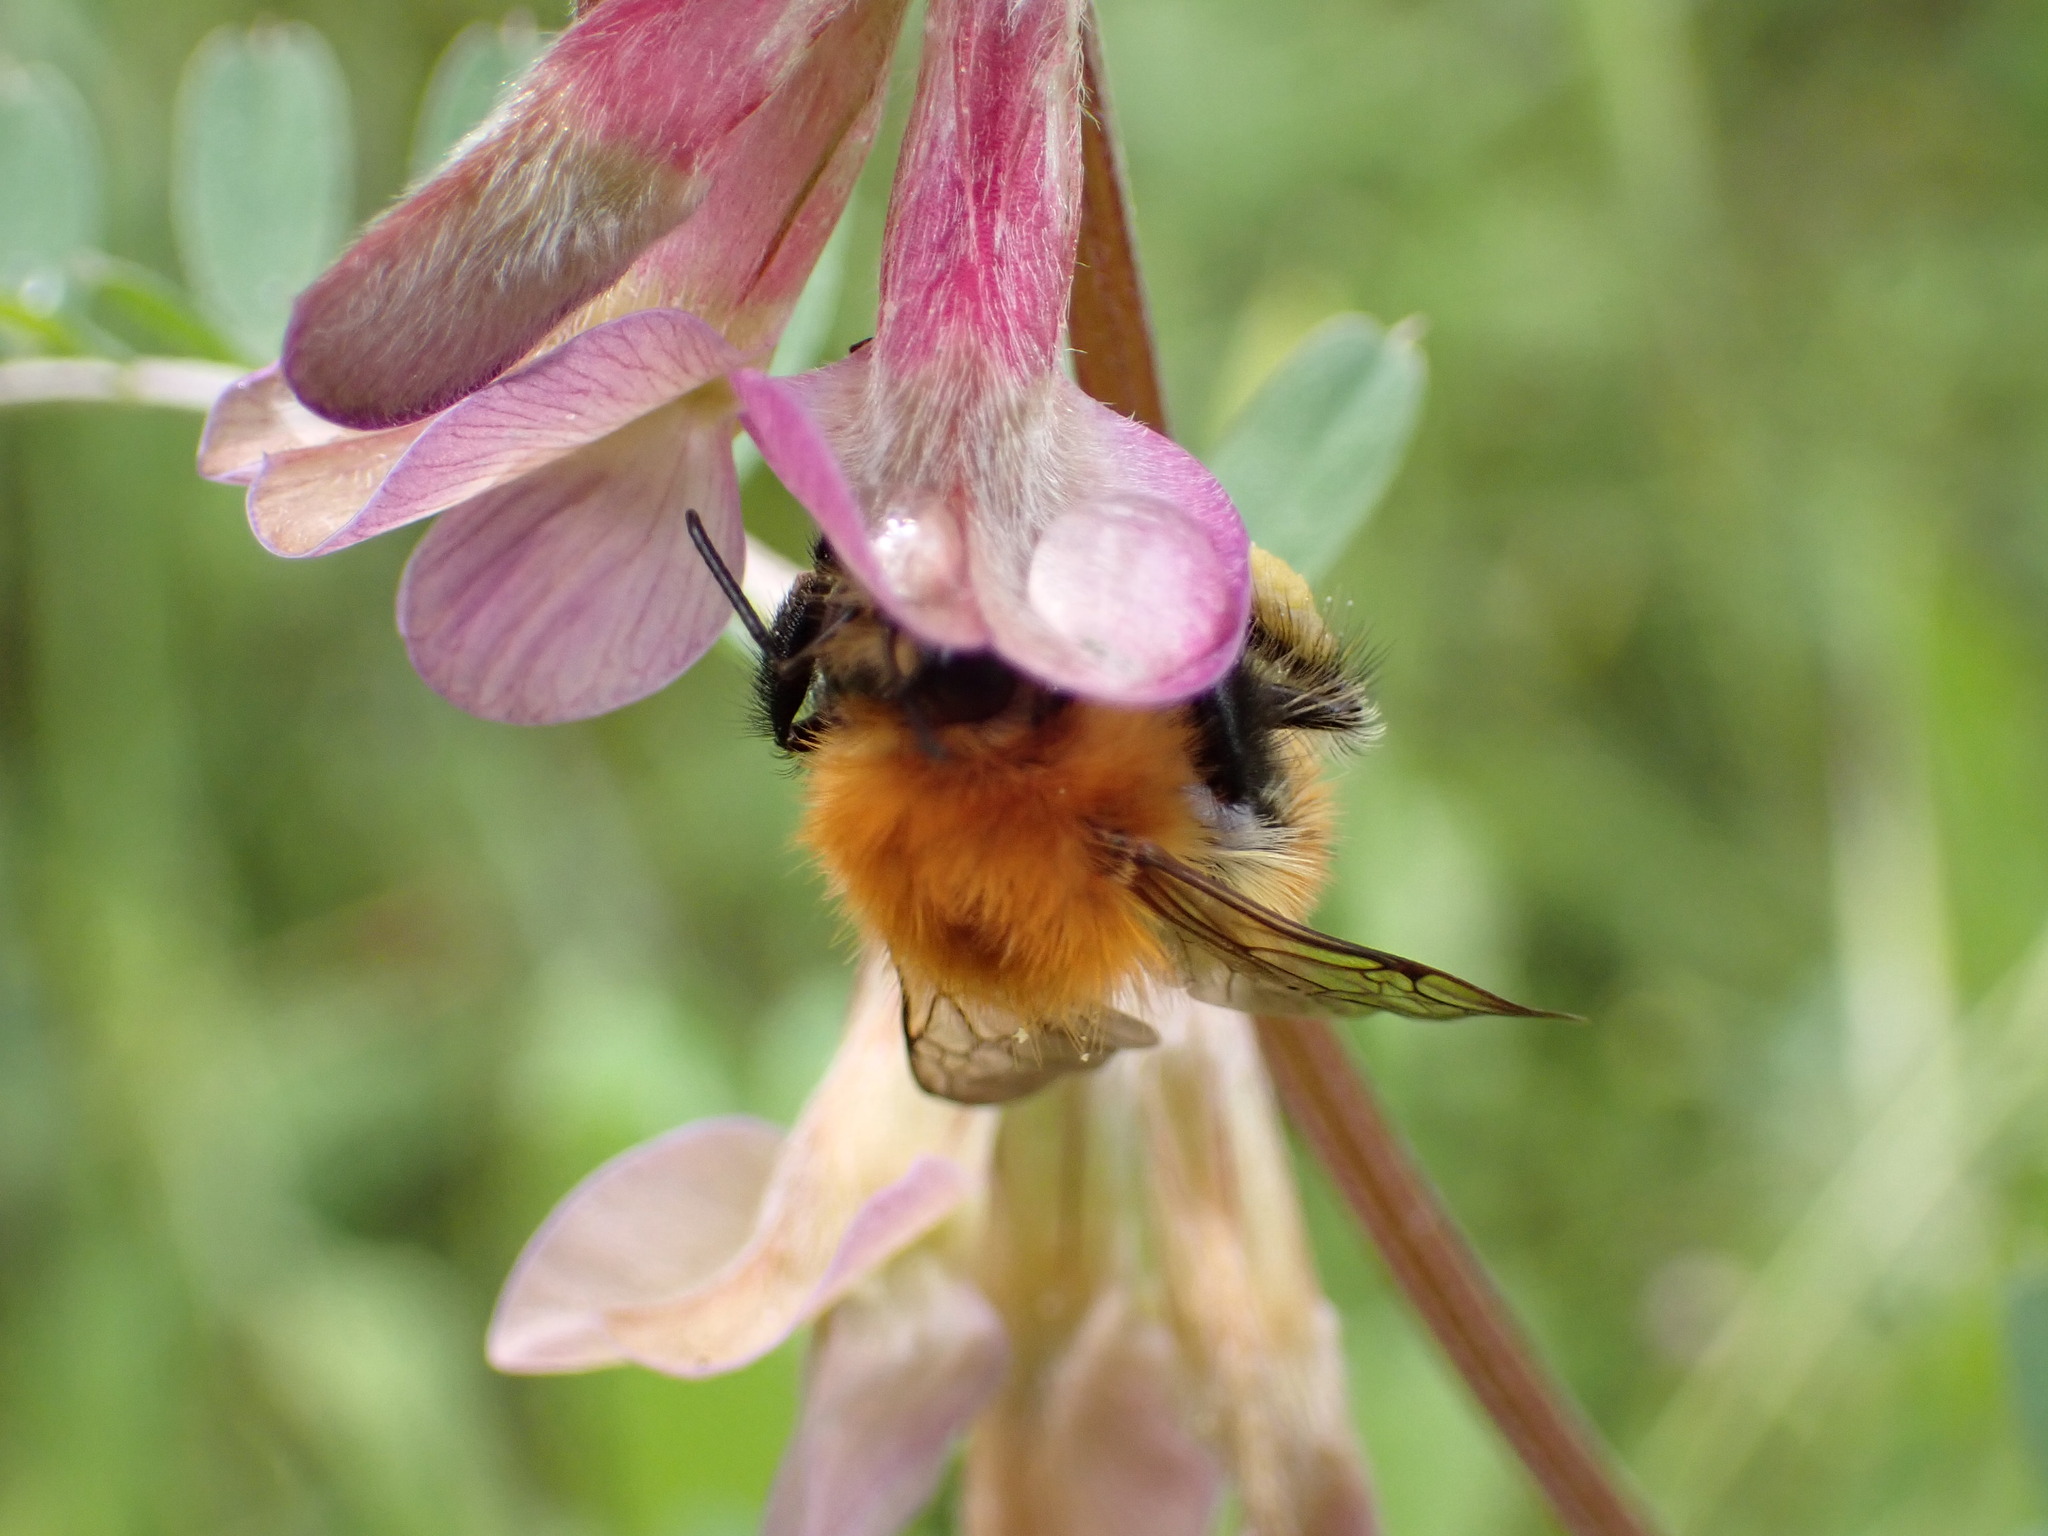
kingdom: Animalia
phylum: Arthropoda
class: Insecta
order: Hymenoptera
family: Apidae
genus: Bombus
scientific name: Bombus pascuorum
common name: Common carder bee
